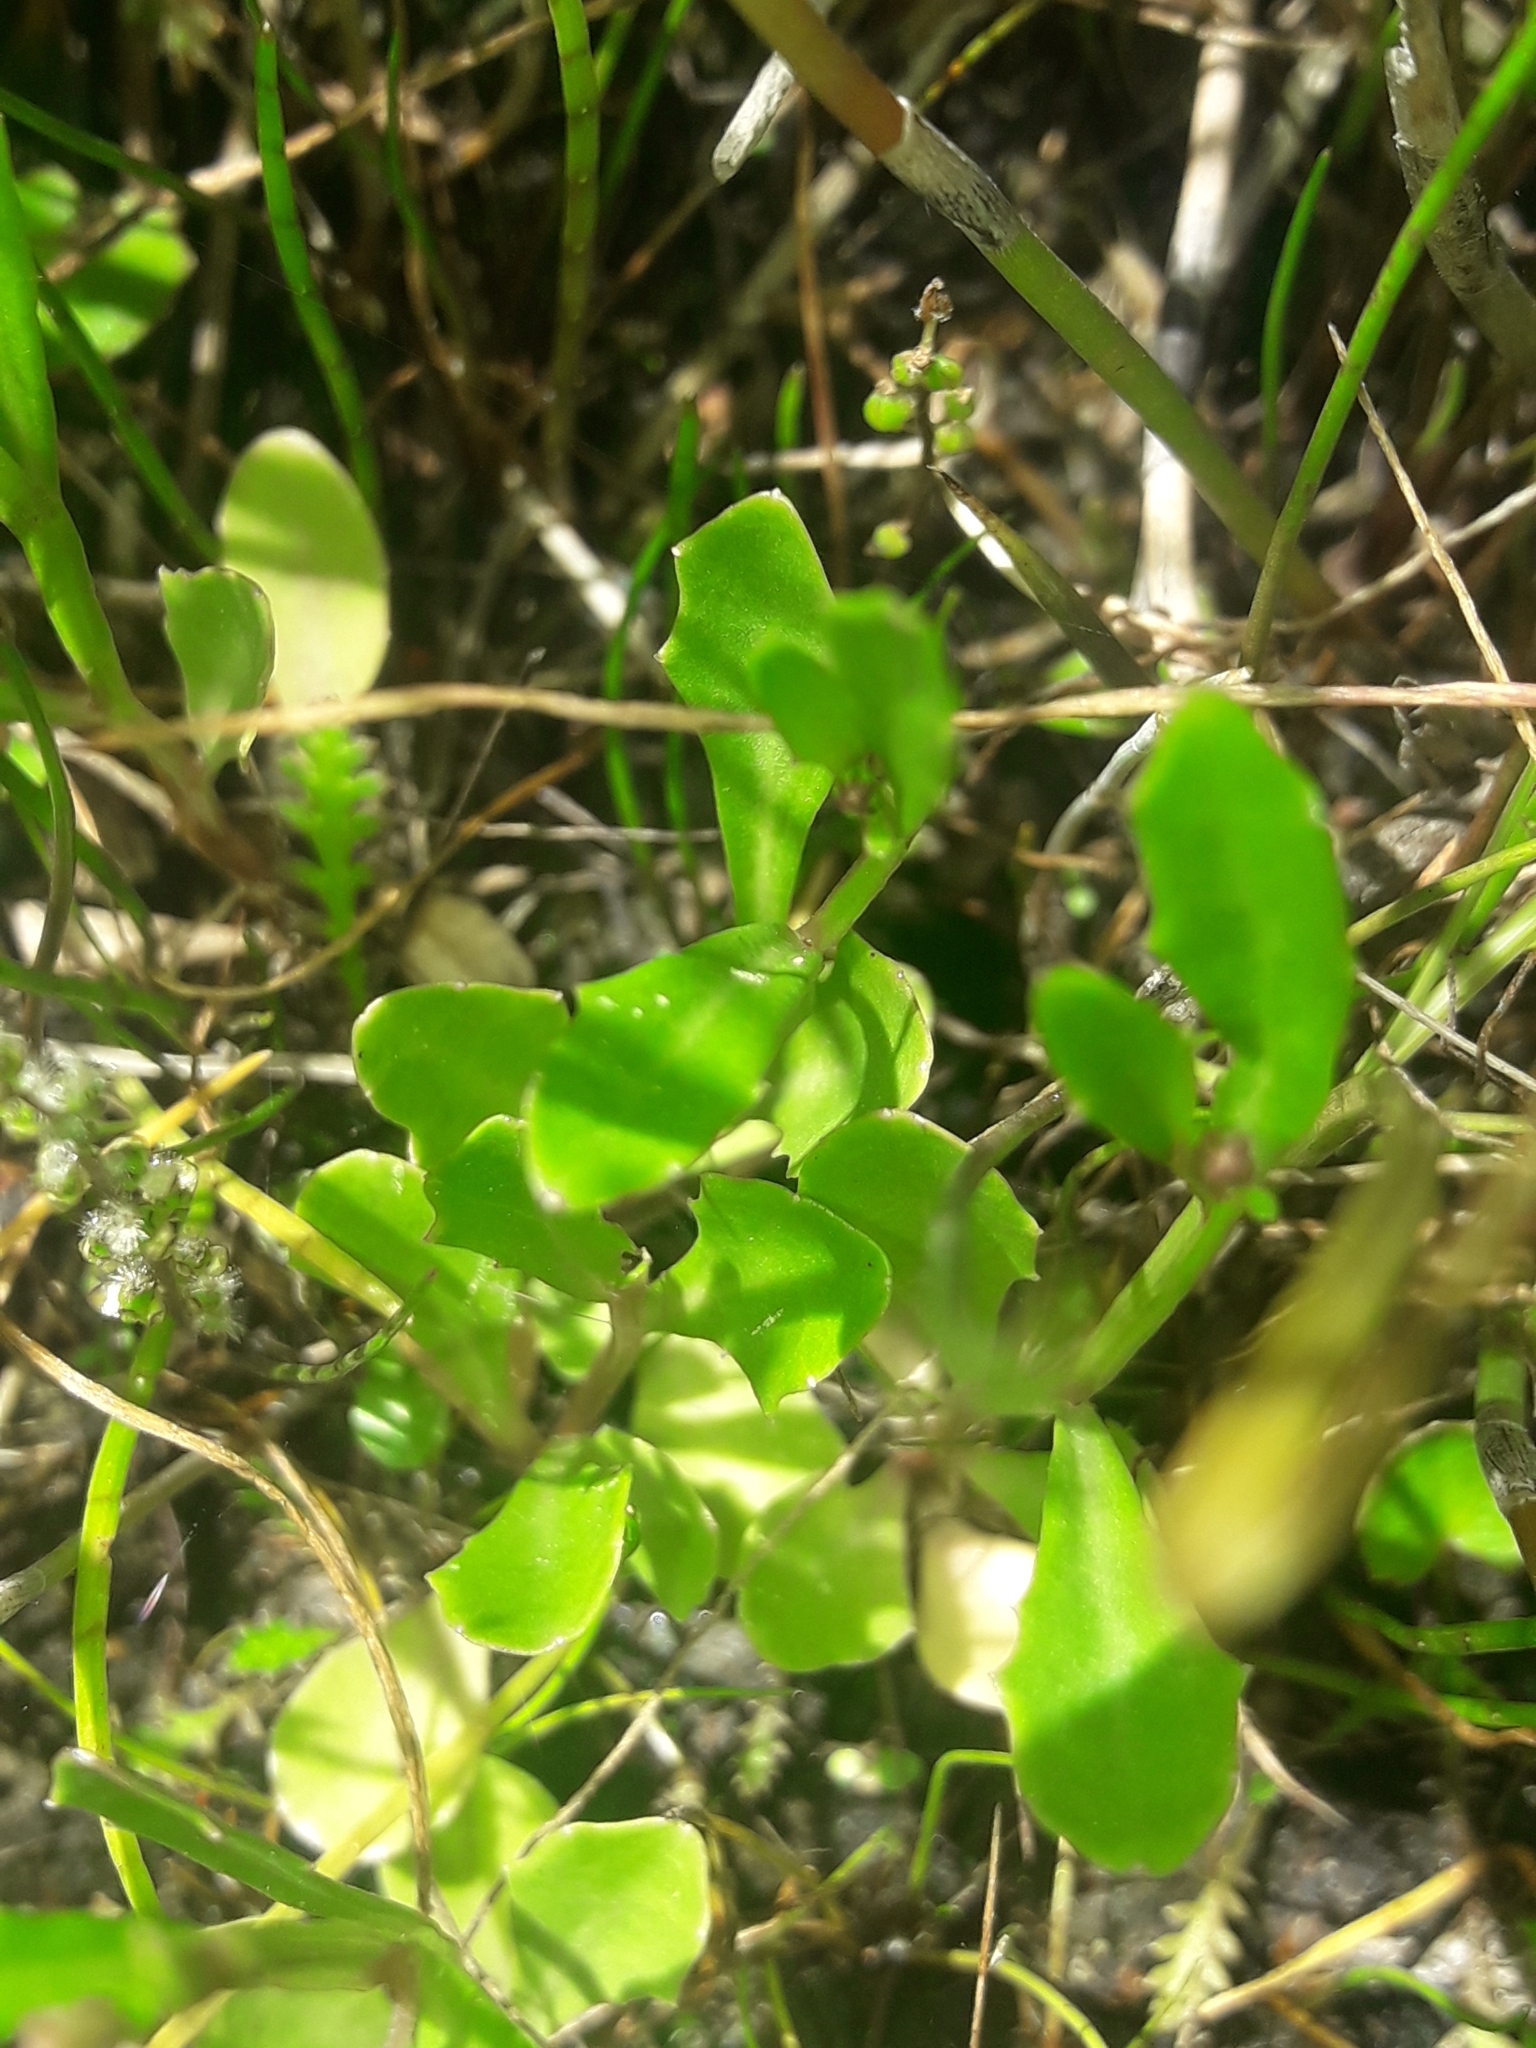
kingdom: Plantae
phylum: Tracheophyta
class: Magnoliopsida
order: Asterales
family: Campanulaceae
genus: Lobelia
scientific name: Lobelia anceps
